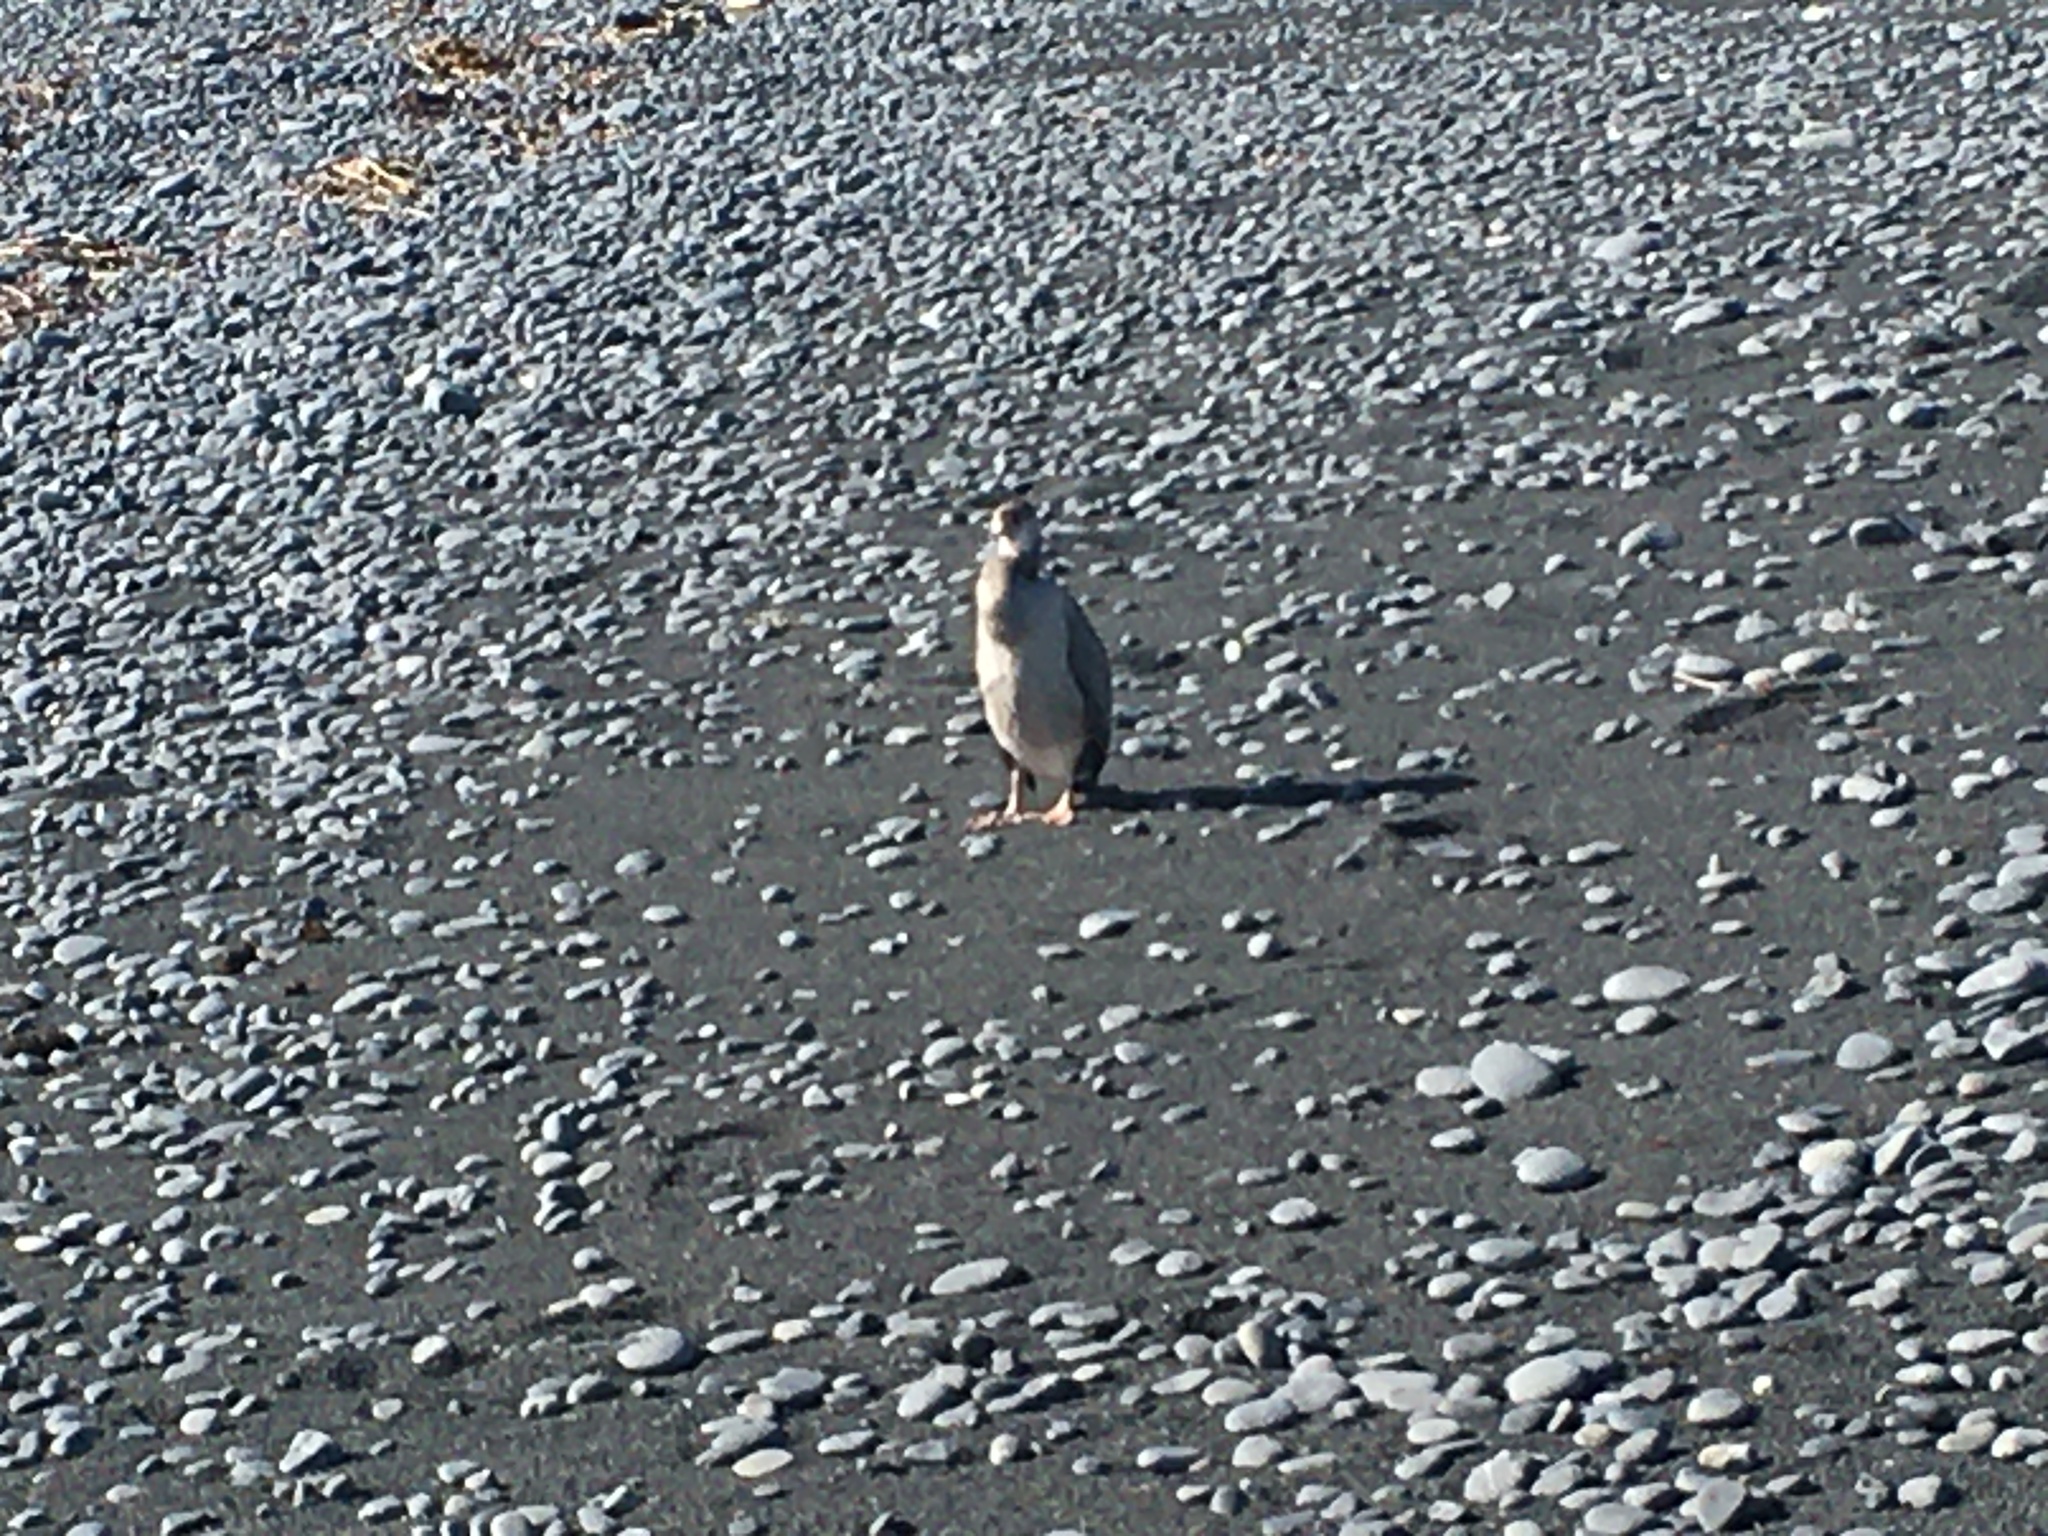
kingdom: Animalia
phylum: Chordata
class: Aves
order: Suliformes
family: Phalacrocoracidae
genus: Phalacrocorax
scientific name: Phalacrocorax punctatus
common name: Spotted shag
